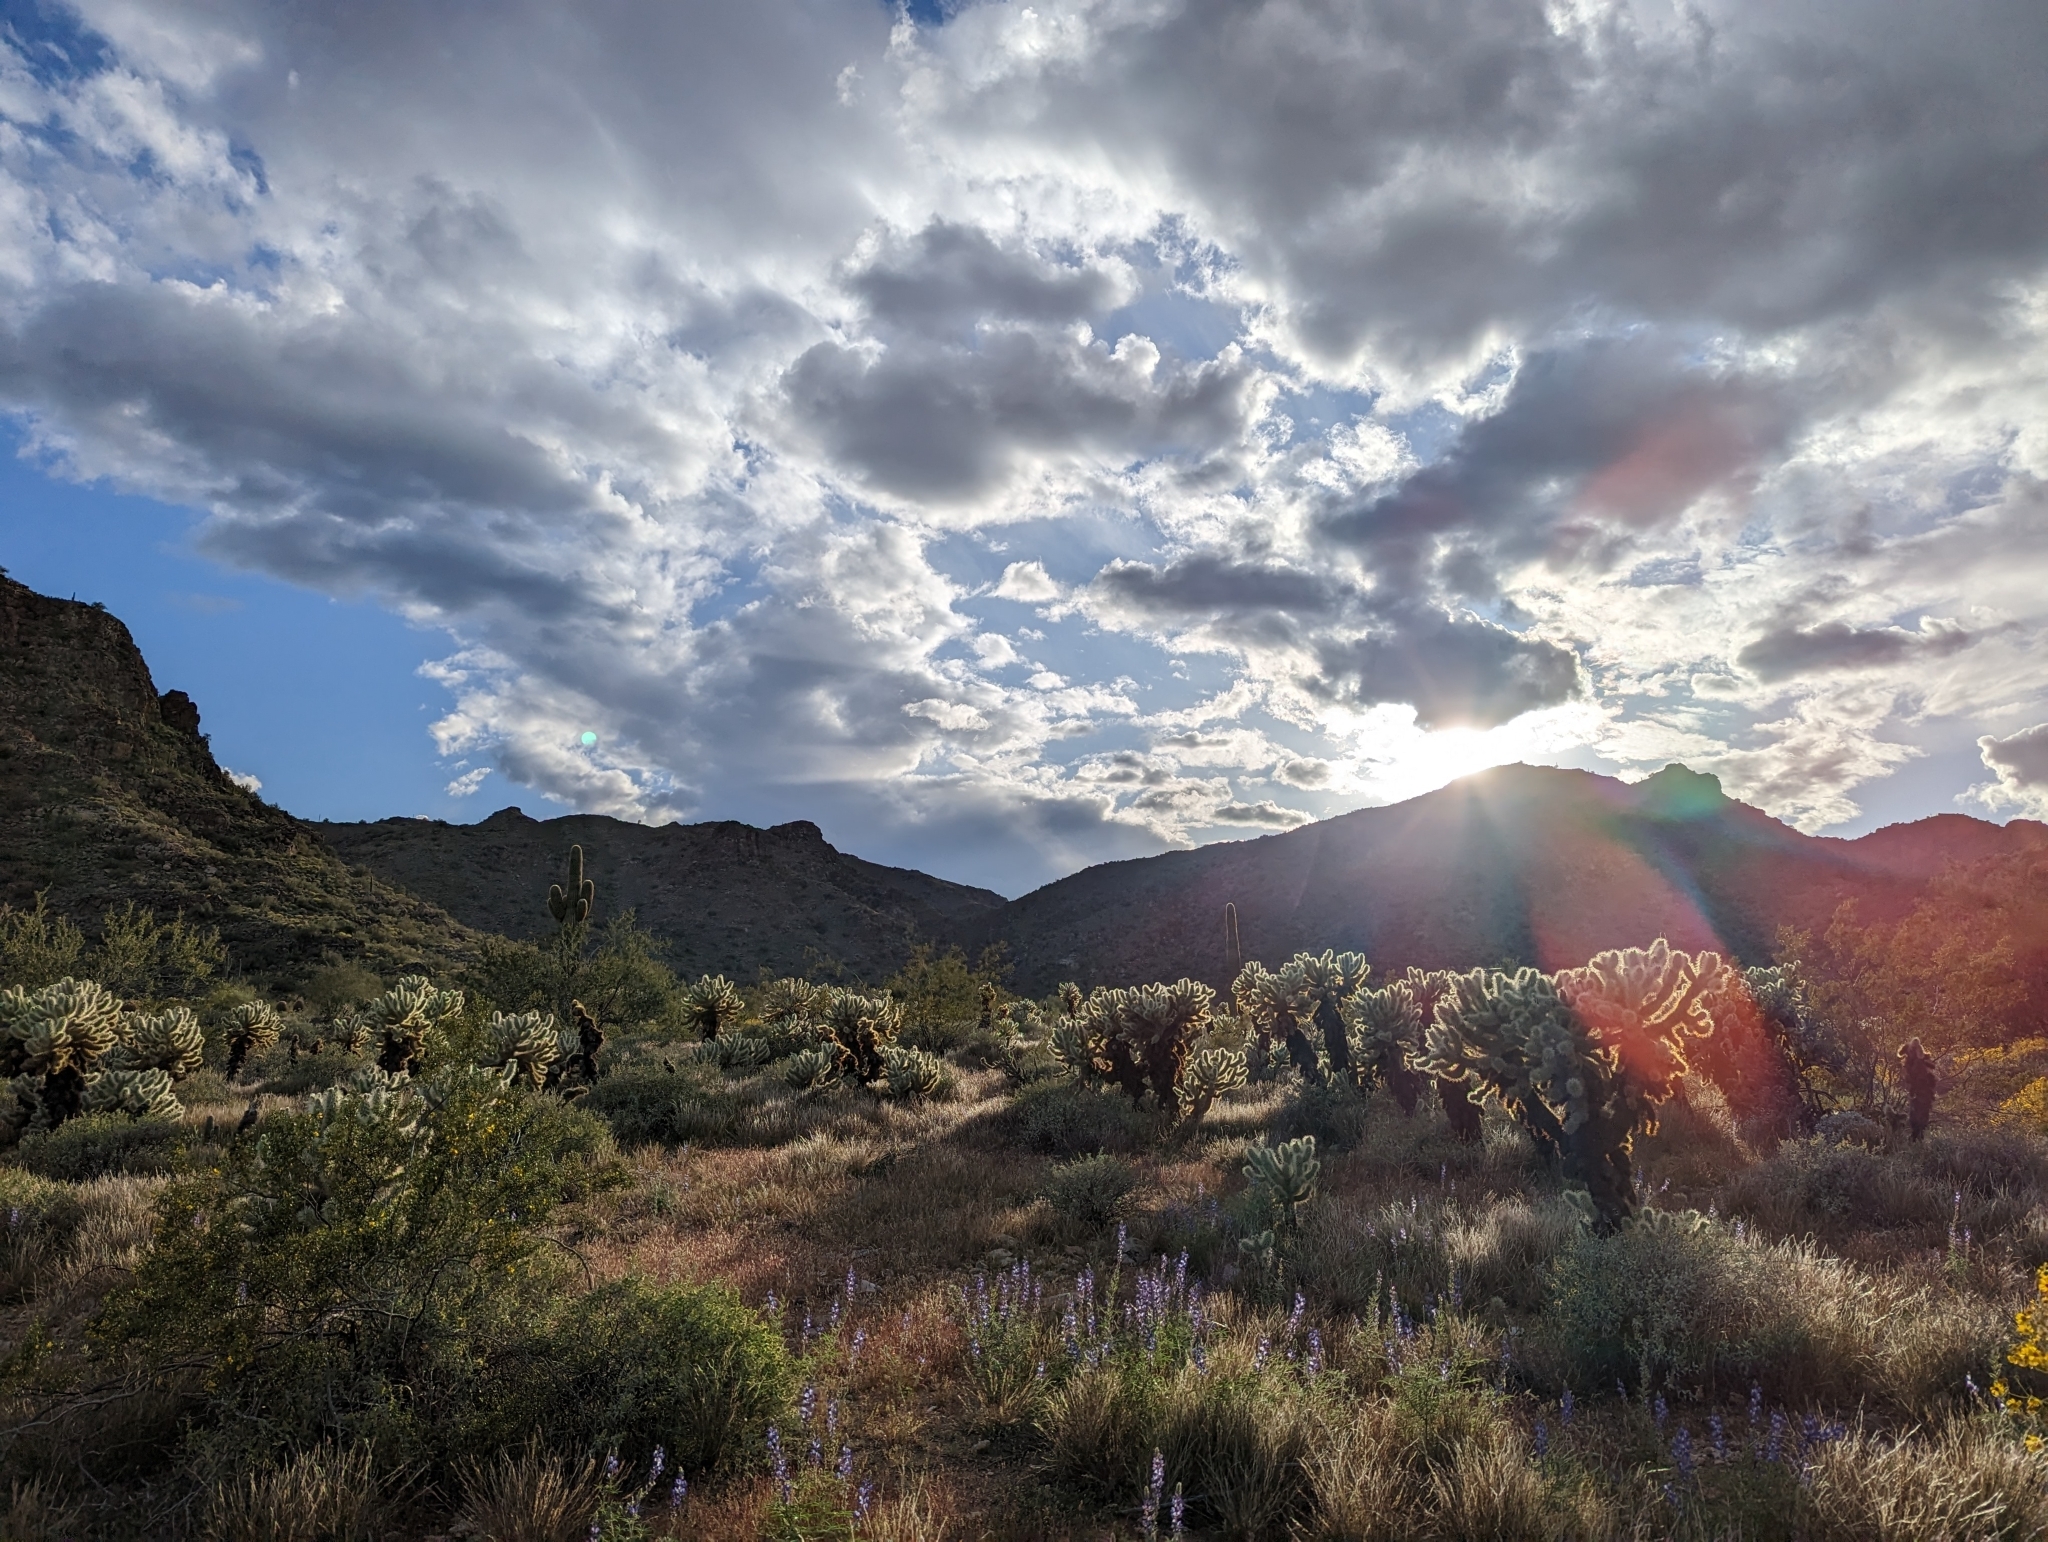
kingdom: Plantae
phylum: Tracheophyta
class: Magnoliopsida
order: Caryophyllales
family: Cactaceae
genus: Cylindropuntia
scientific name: Cylindropuntia fosbergii
